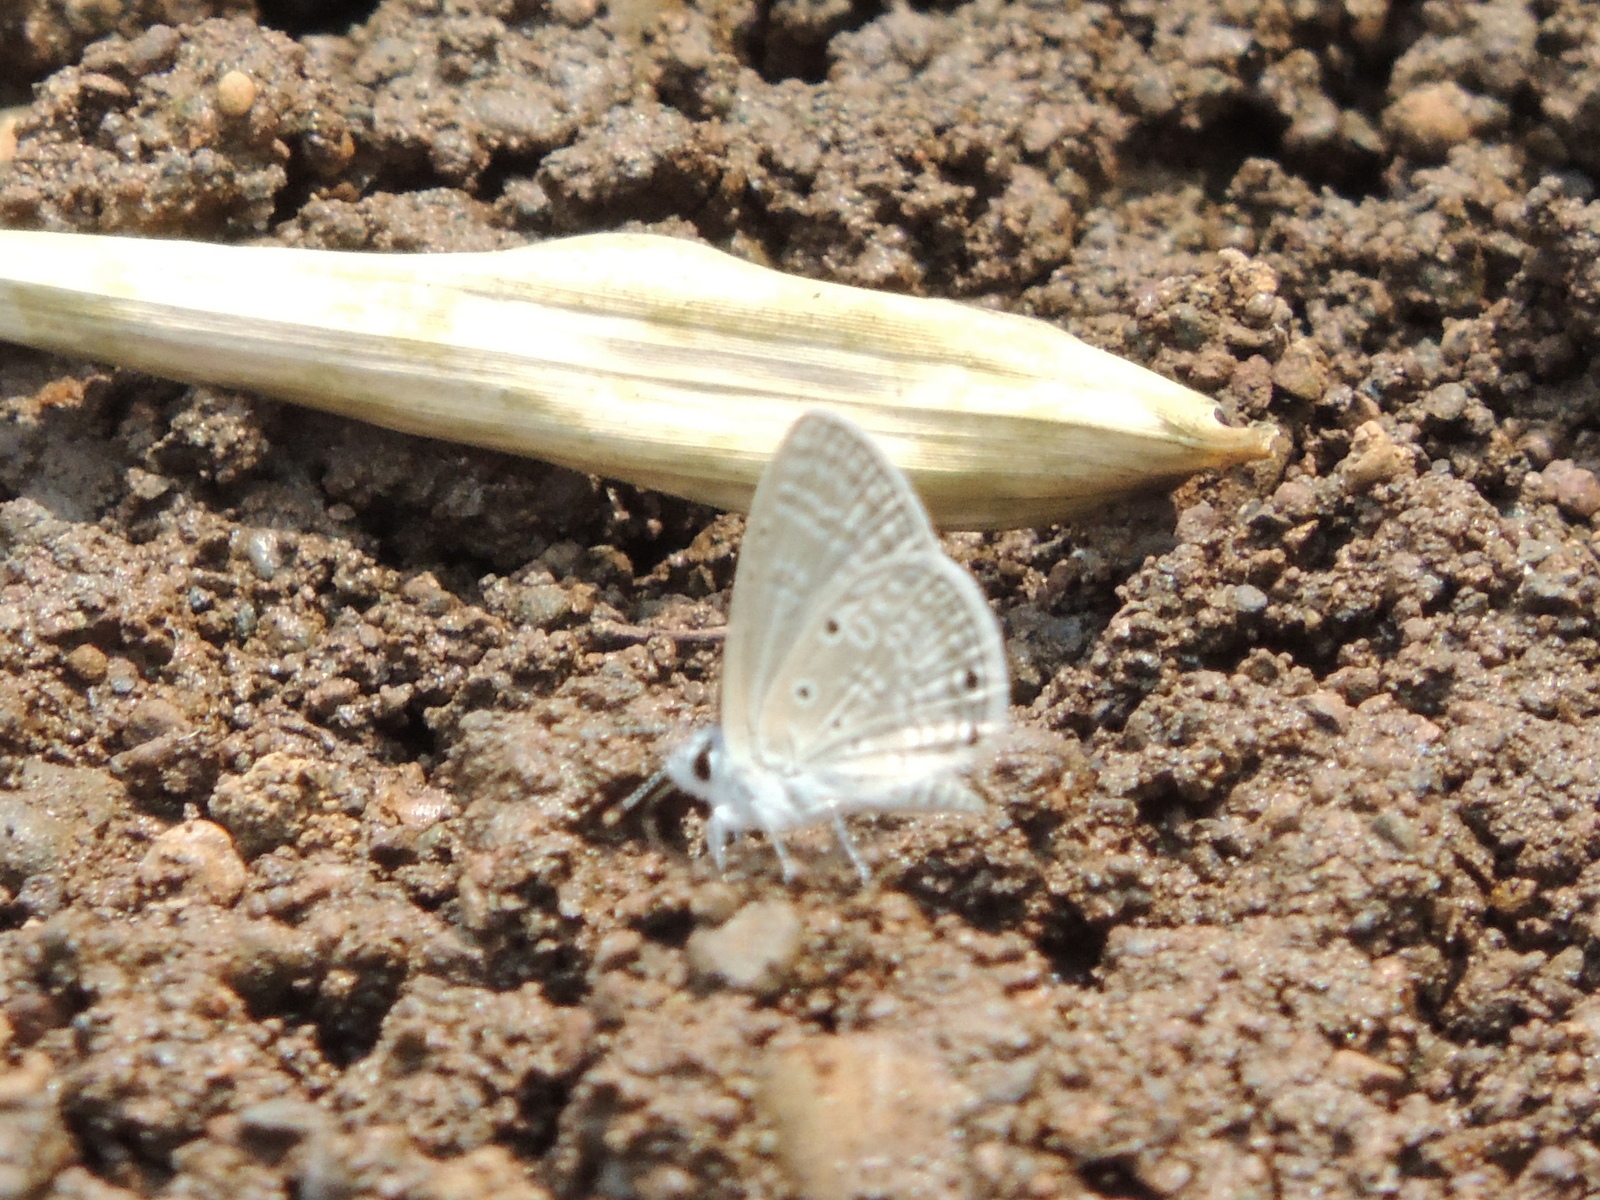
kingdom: Animalia
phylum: Arthropoda
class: Insecta
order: Lepidoptera
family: Lycaenidae
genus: Azanus
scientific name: Azanus ubaldus
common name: Desert babul blue
